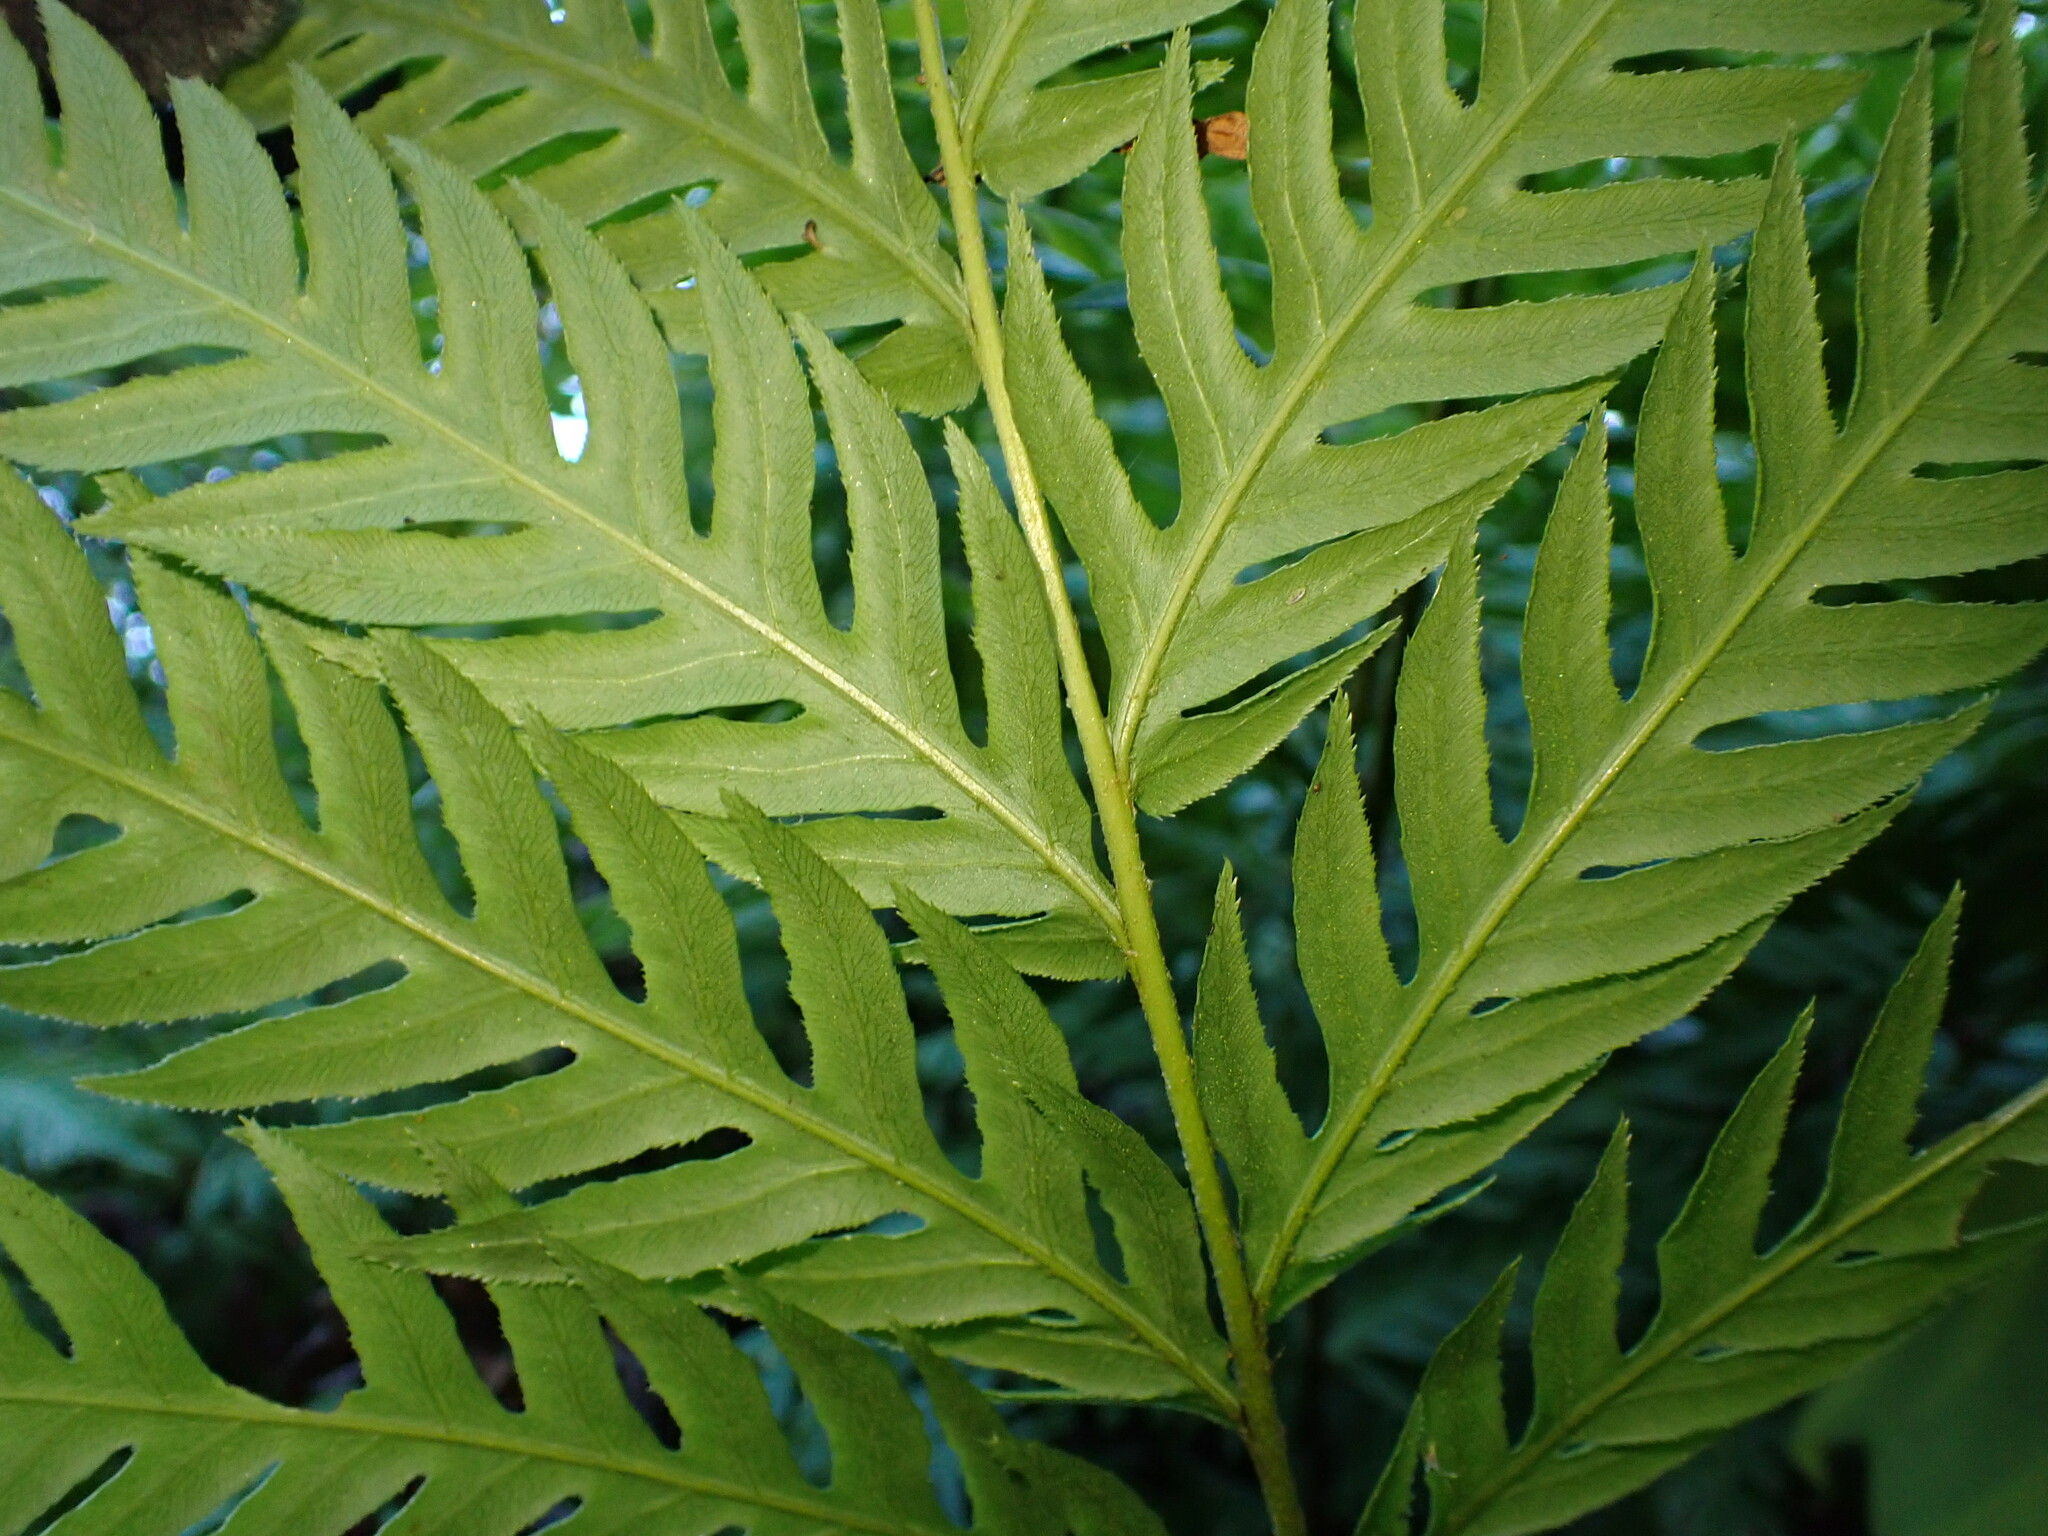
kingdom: Plantae
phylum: Tracheophyta
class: Polypodiopsida
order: Polypodiales
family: Blechnaceae
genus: Woodwardia
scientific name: Woodwardia fimbriata
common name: Giant chain fern
